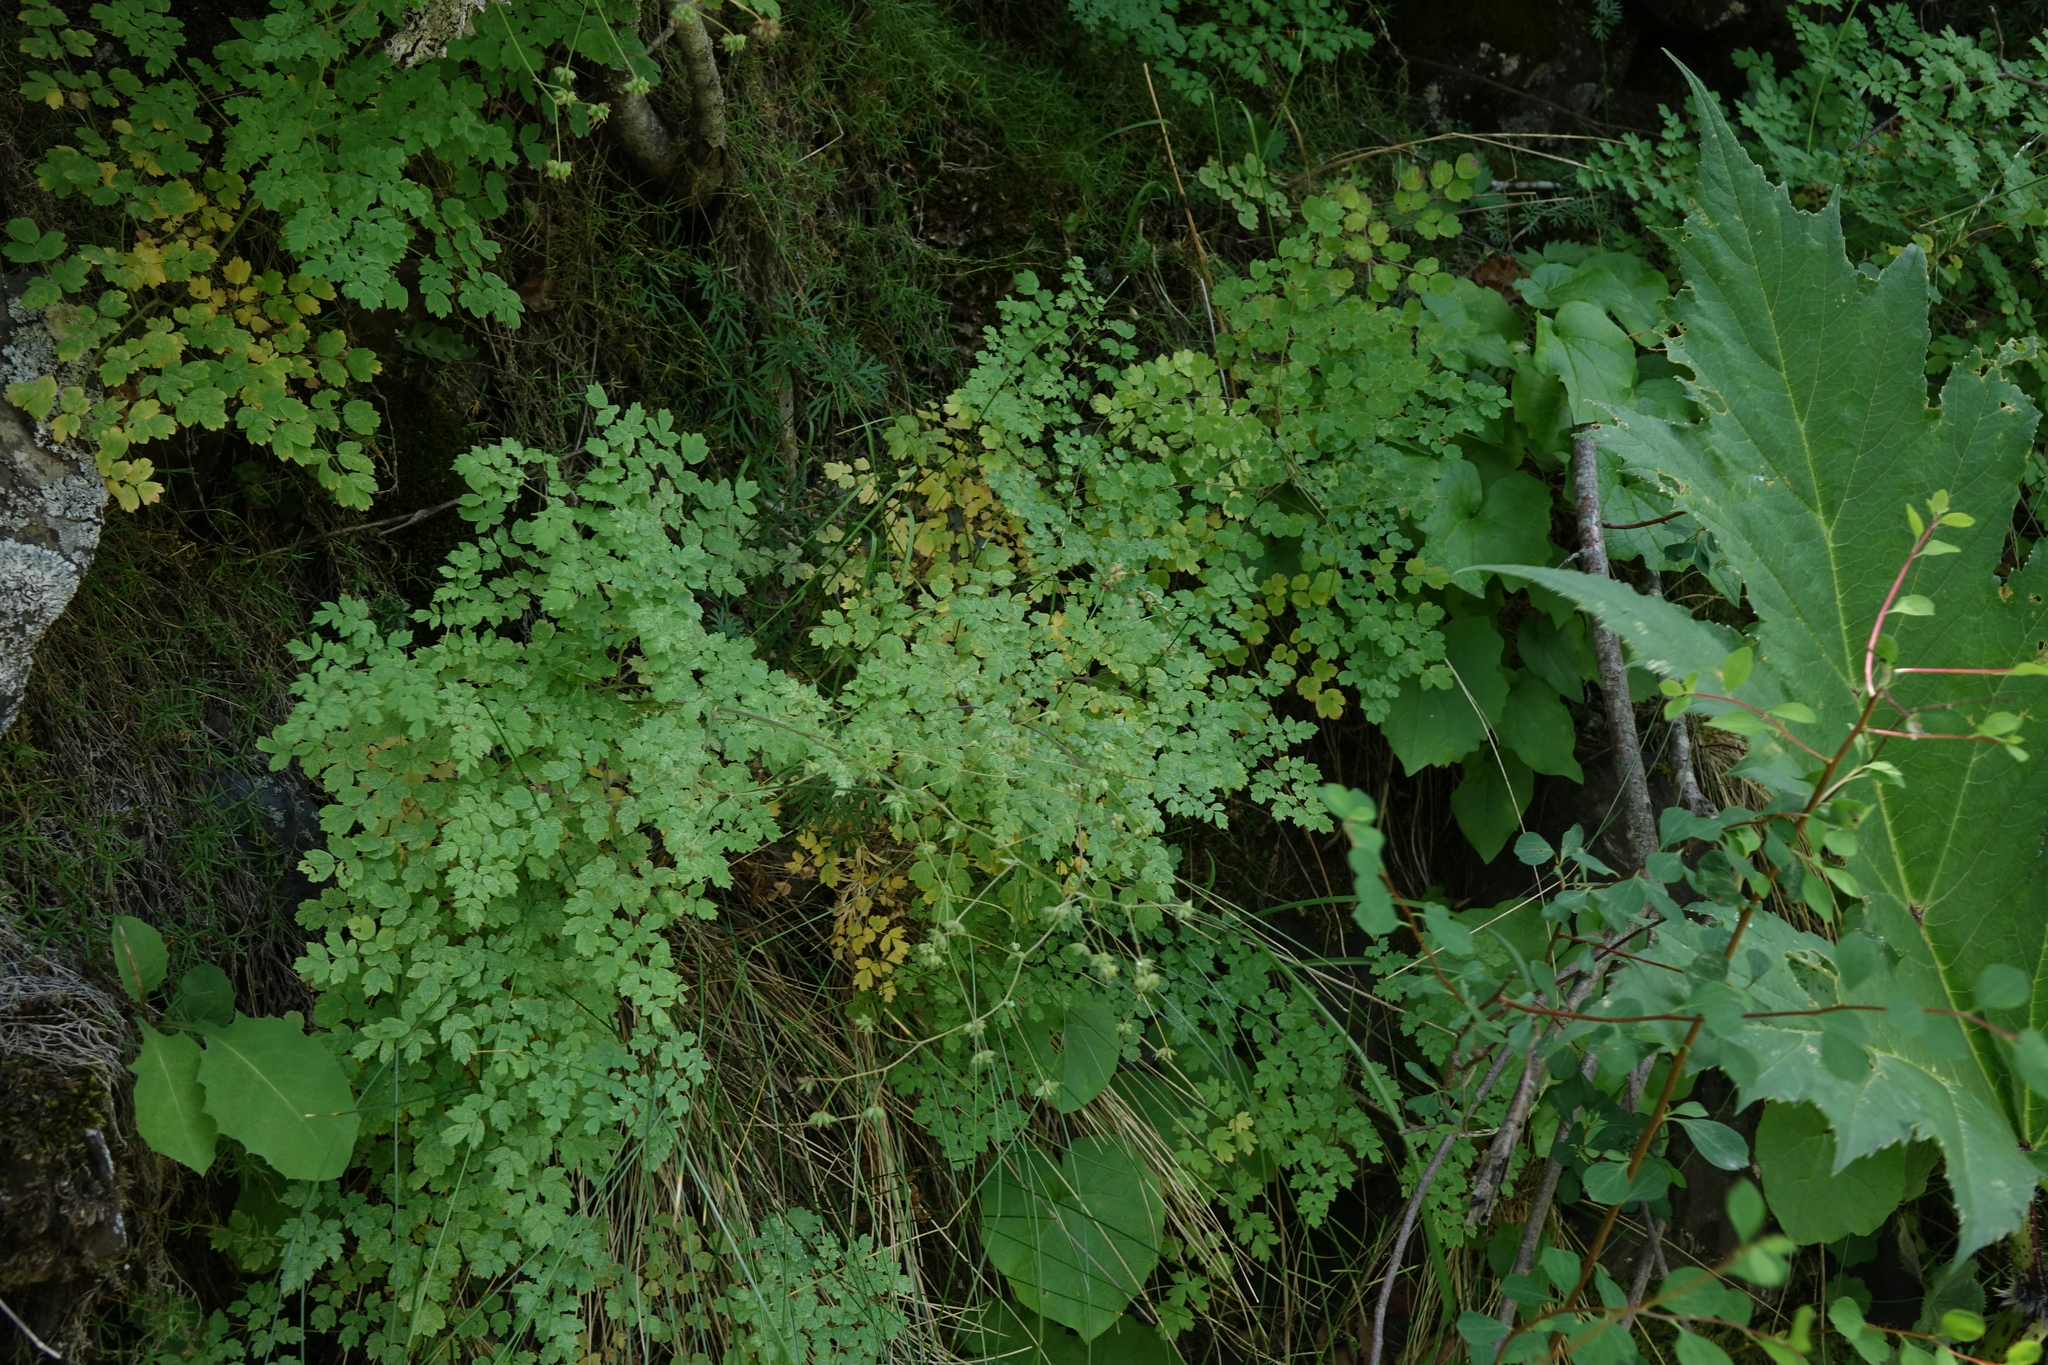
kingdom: Plantae
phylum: Tracheophyta
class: Magnoliopsida
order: Ranunculales
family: Ranunculaceae
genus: Thalictrum
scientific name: Thalictrum foetidum
